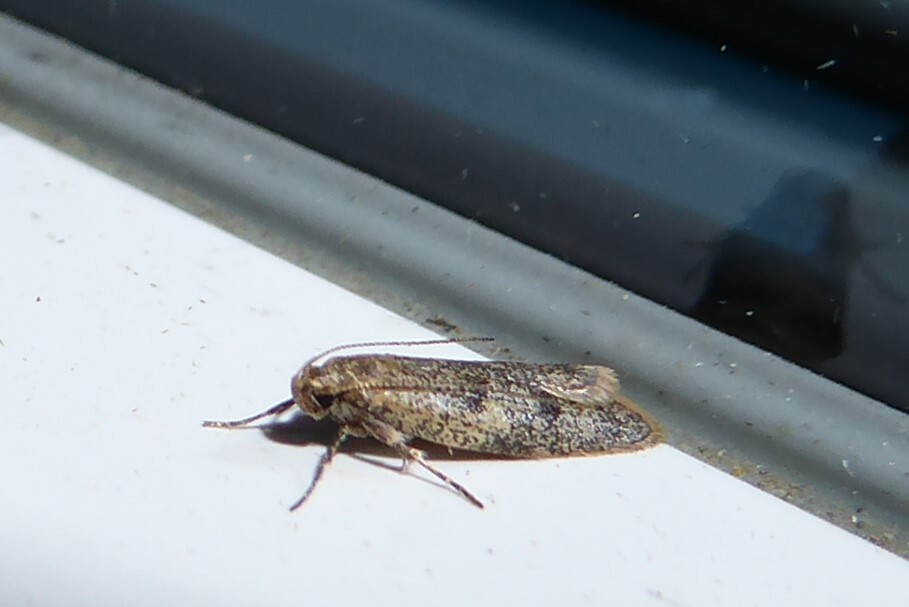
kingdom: Animalia
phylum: Arthropoda
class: Insecta
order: Lepidoptera
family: Oecophoridae
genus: Gymnobathra
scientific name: Gymnobathra tholodella
